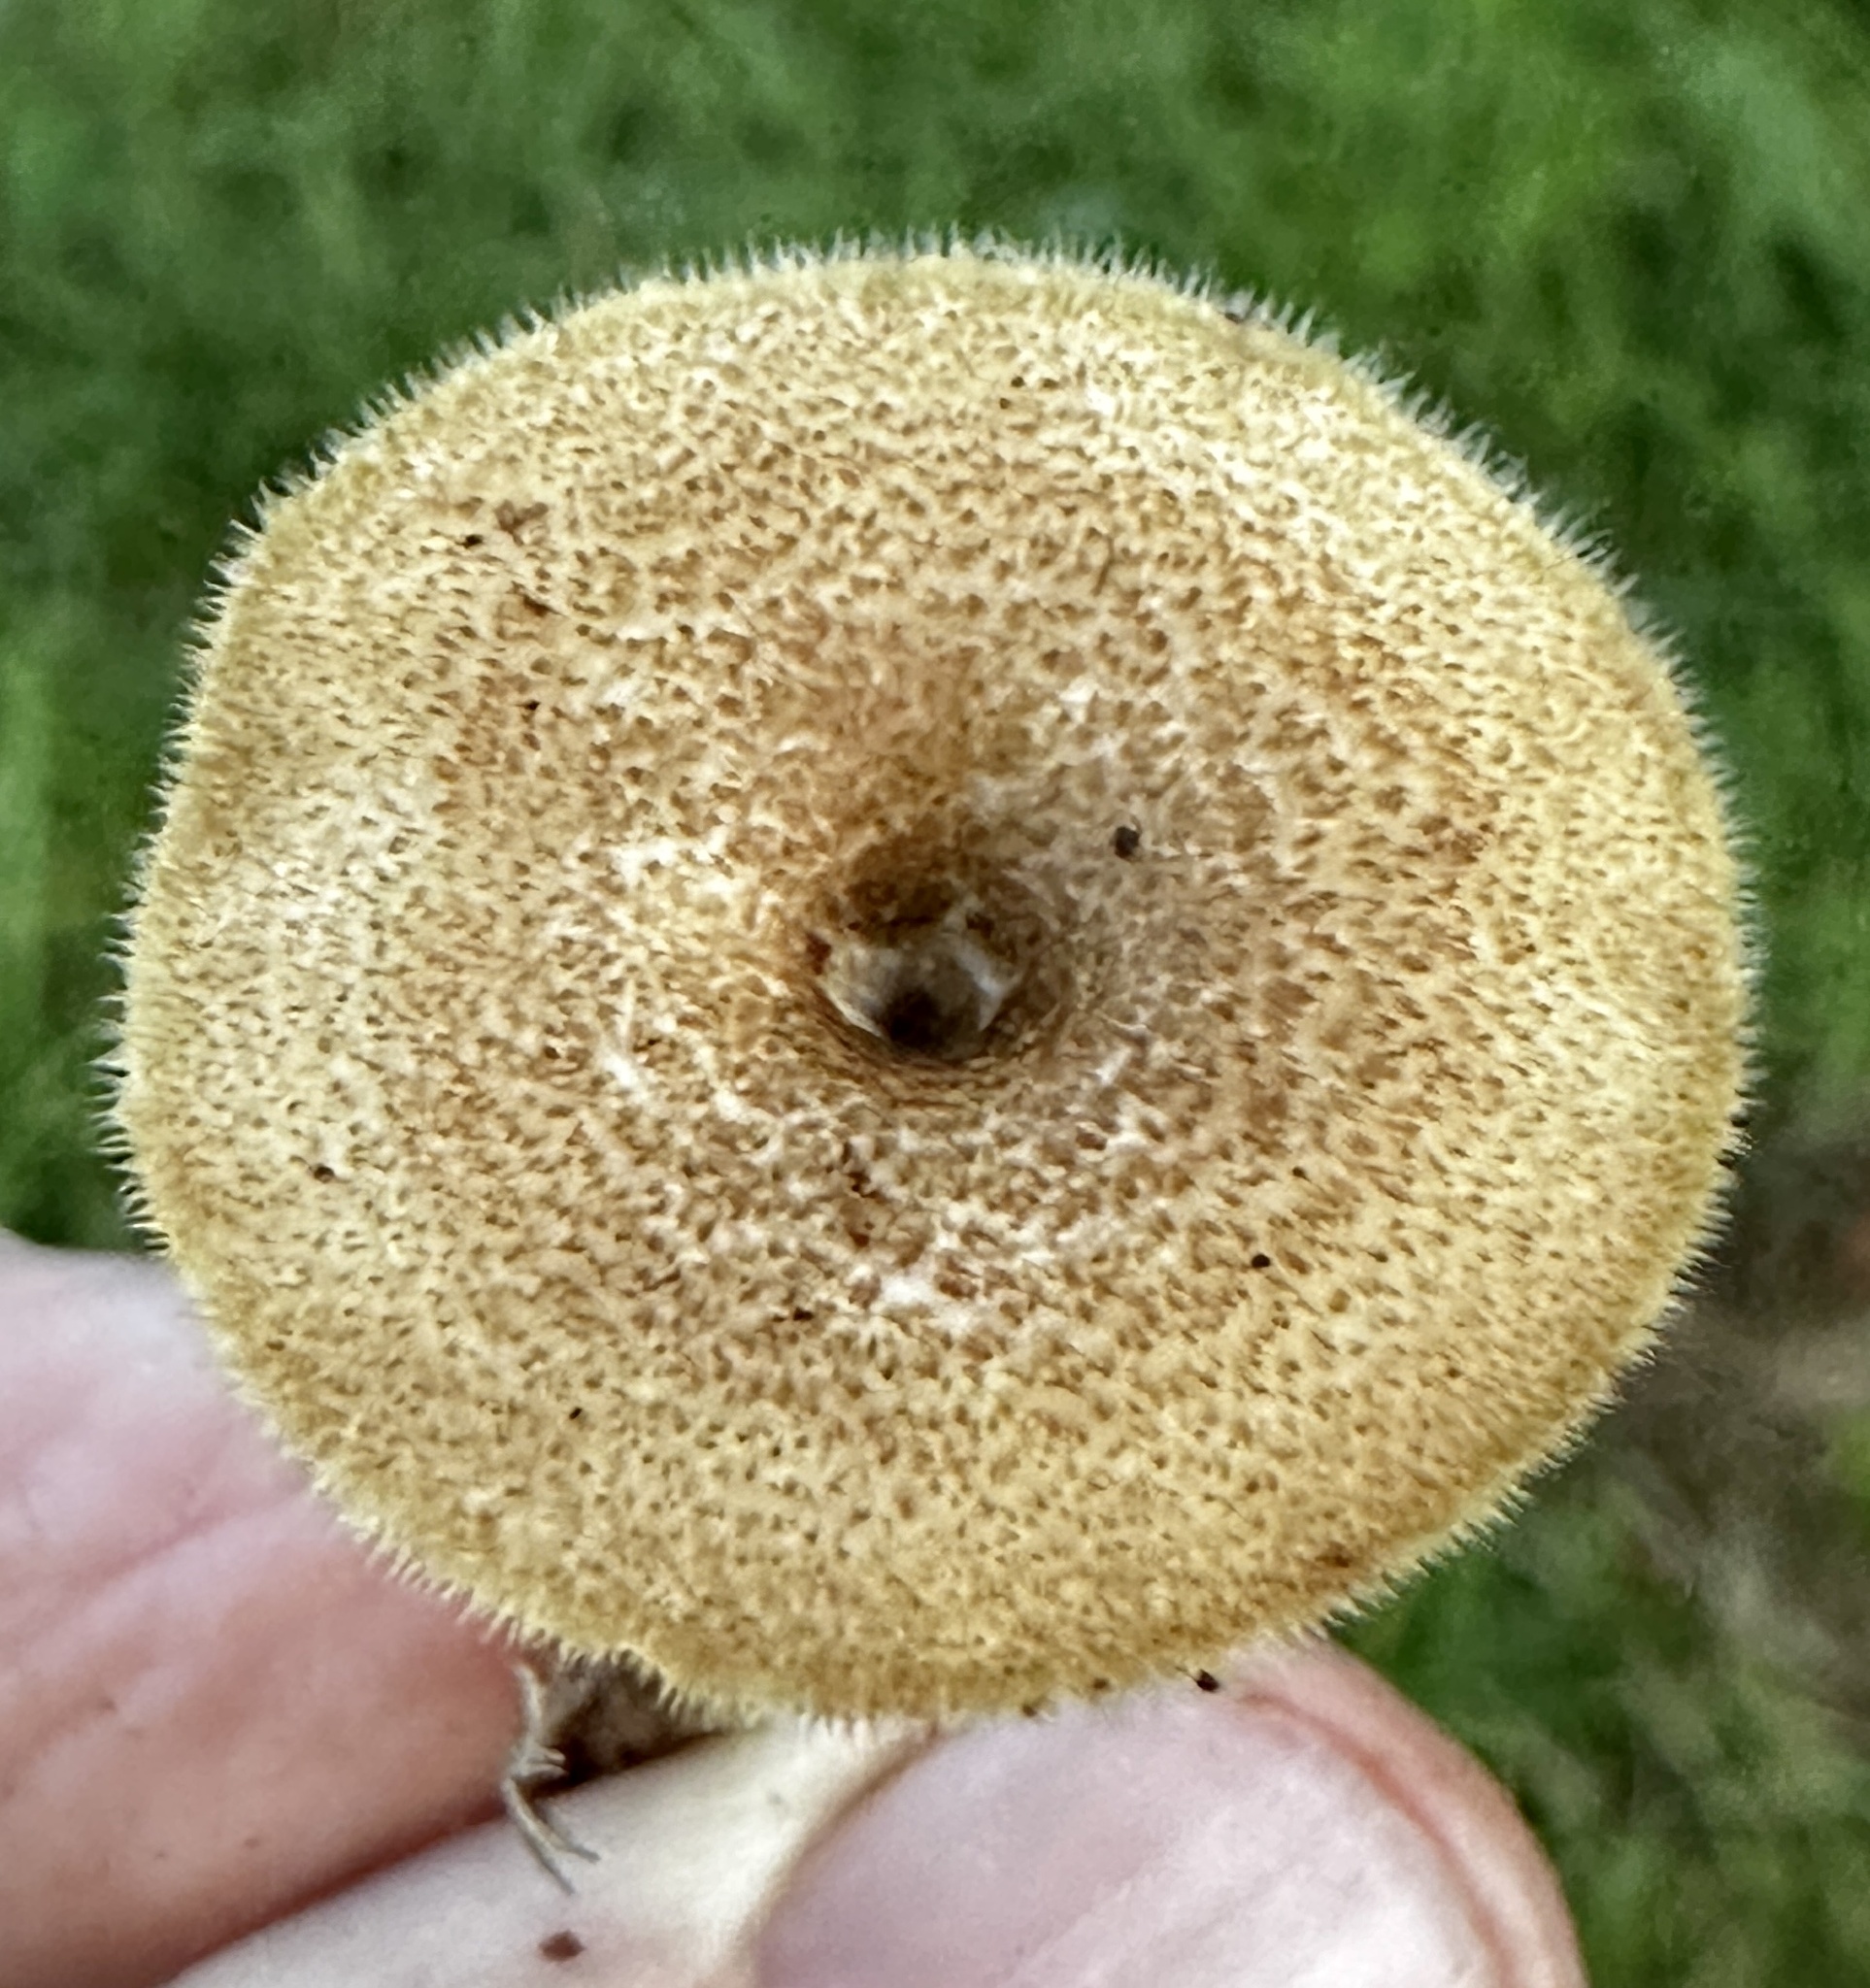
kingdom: Fungi
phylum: Basidiomycota
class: Agaricomycetes
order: Polyporales
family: Polyporaceae
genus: Lentinus
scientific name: Lentinus arcularius
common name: Spring polypore
